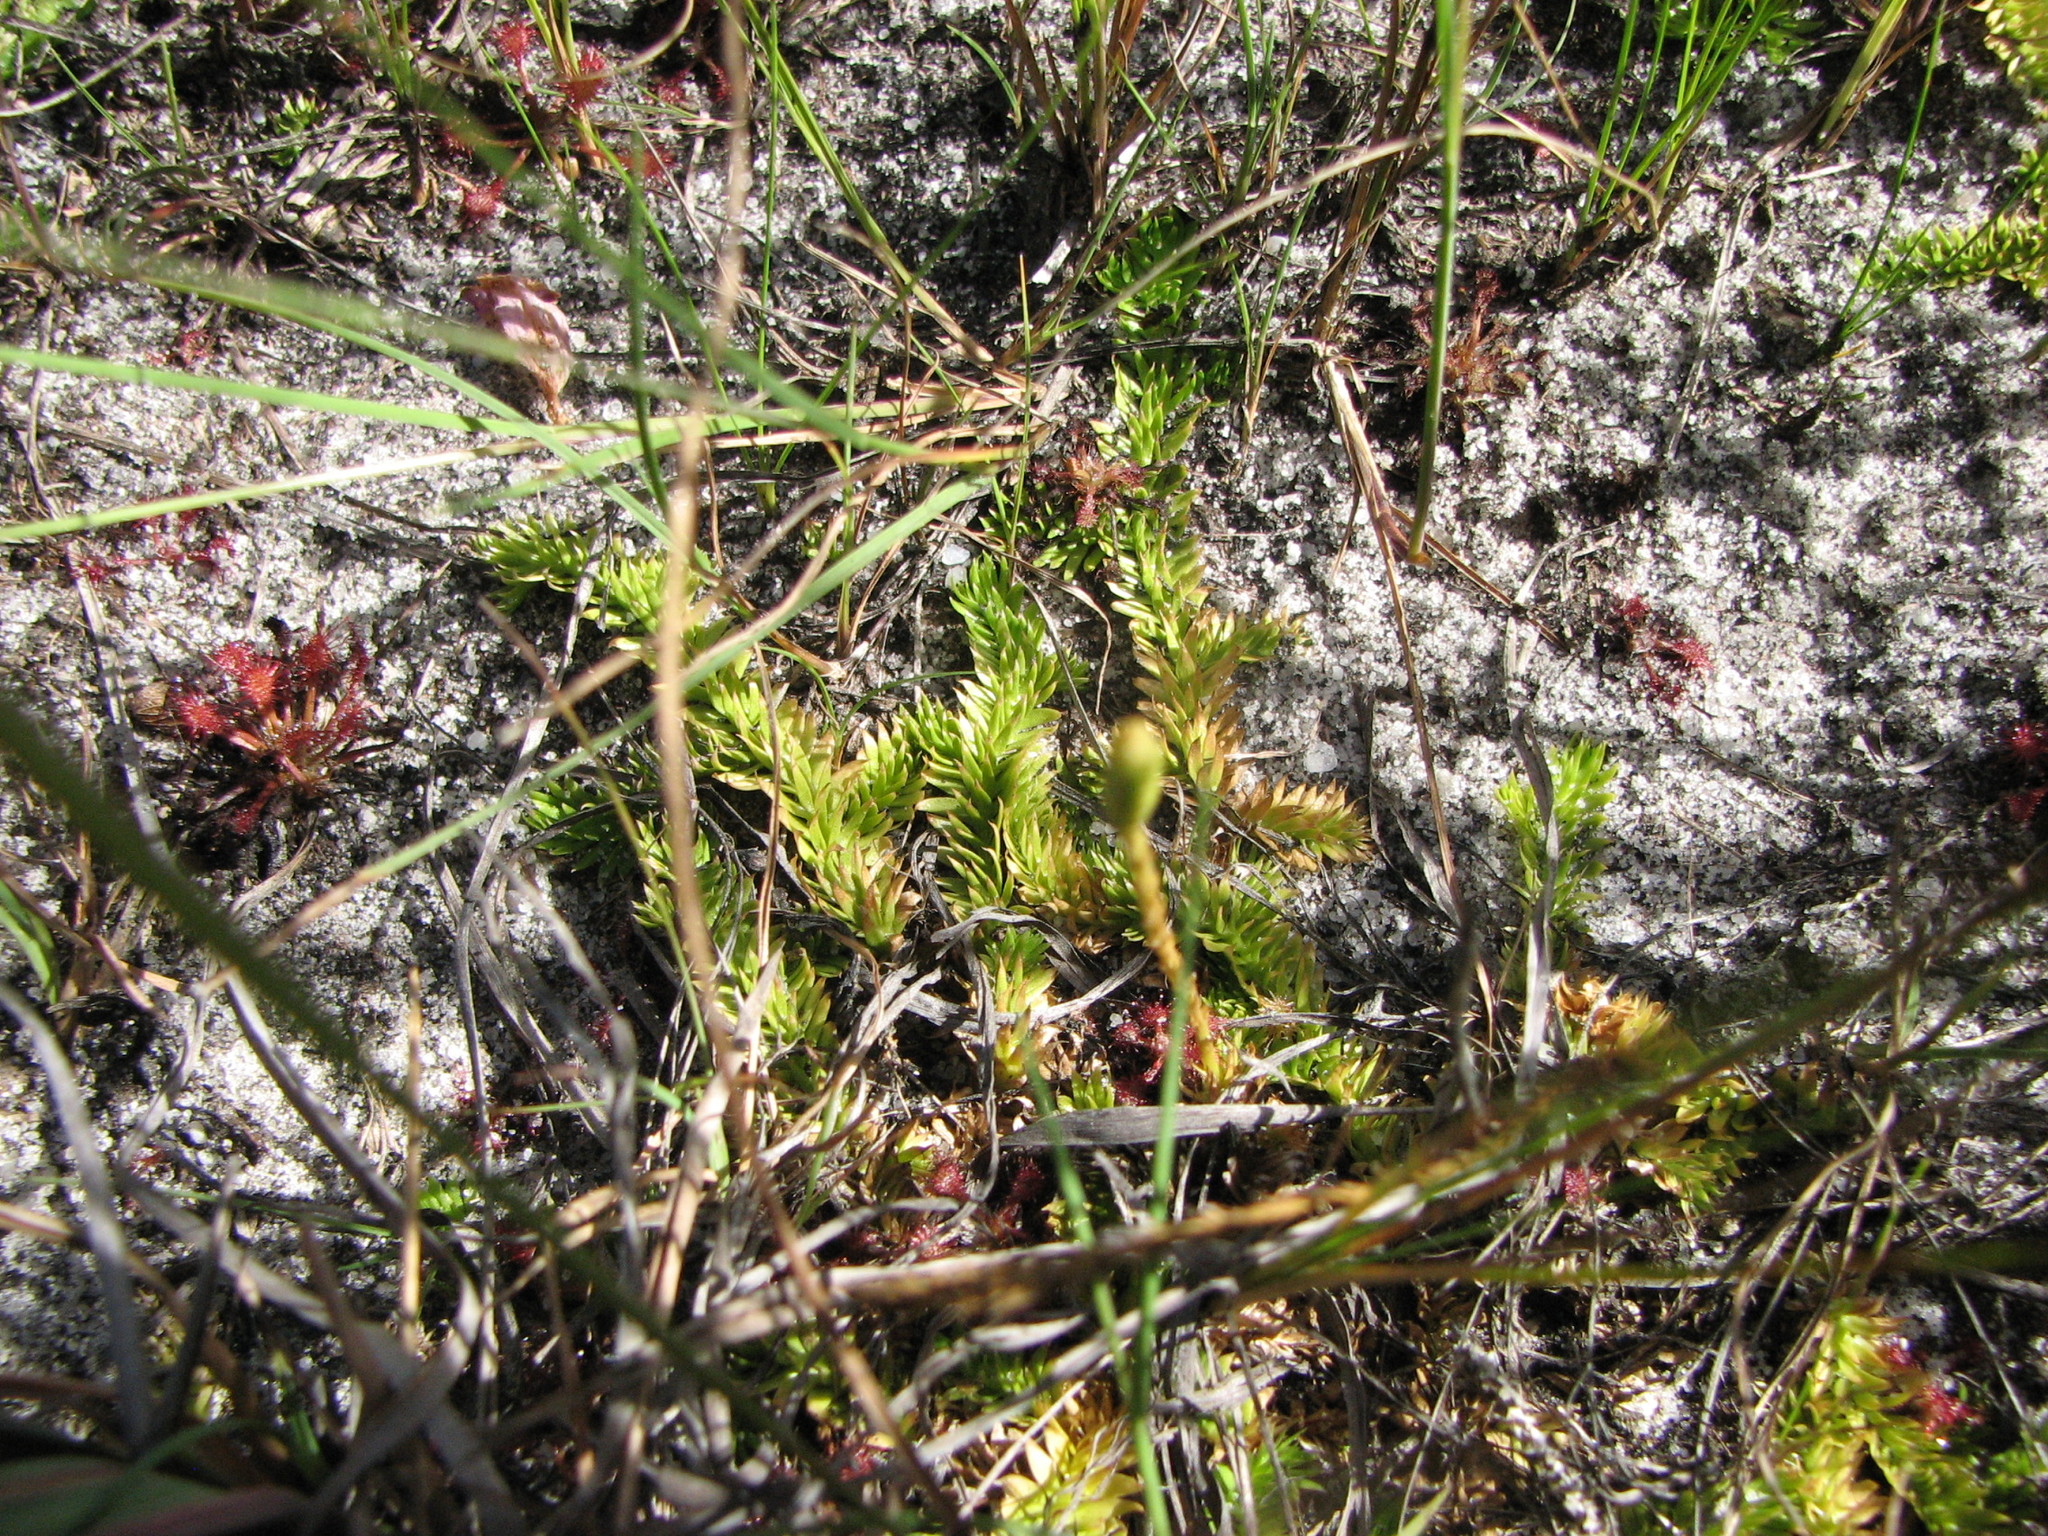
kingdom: Plantae
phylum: Tracheophyta
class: Lycopodiopsida
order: Lycopodiales
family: Lycopodiaceae
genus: Pseudolycopodiella
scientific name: Pseudolycopodiella caroliniana
